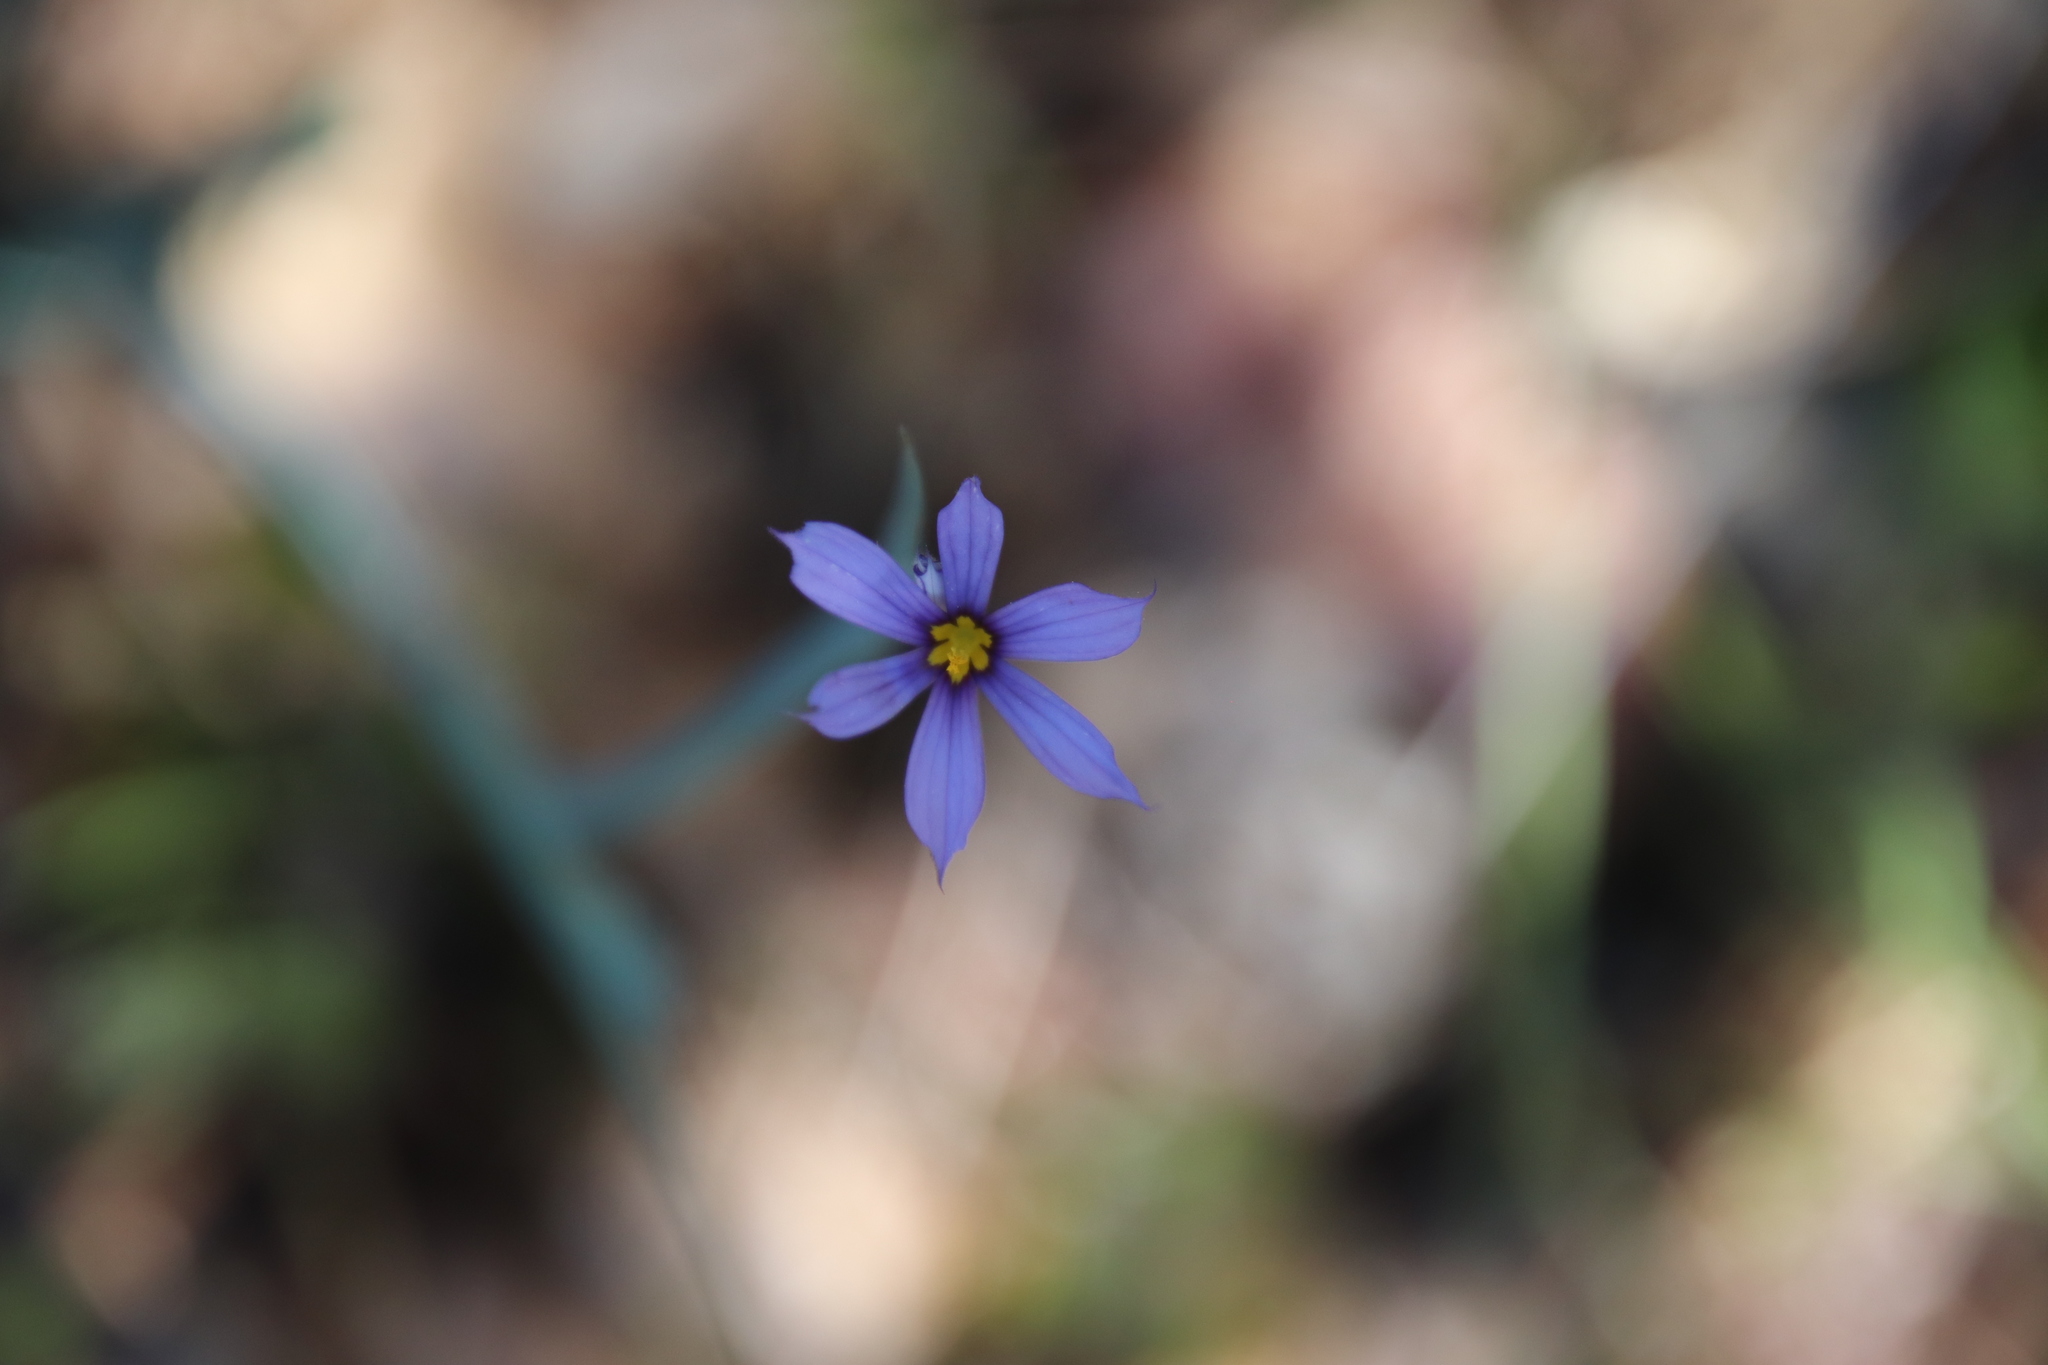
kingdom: Plantae
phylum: Tracheophyta
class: Liliopsida
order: Asparagales
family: Iridaceae
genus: Sisyrinchium
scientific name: Sisyrinchium bellum
